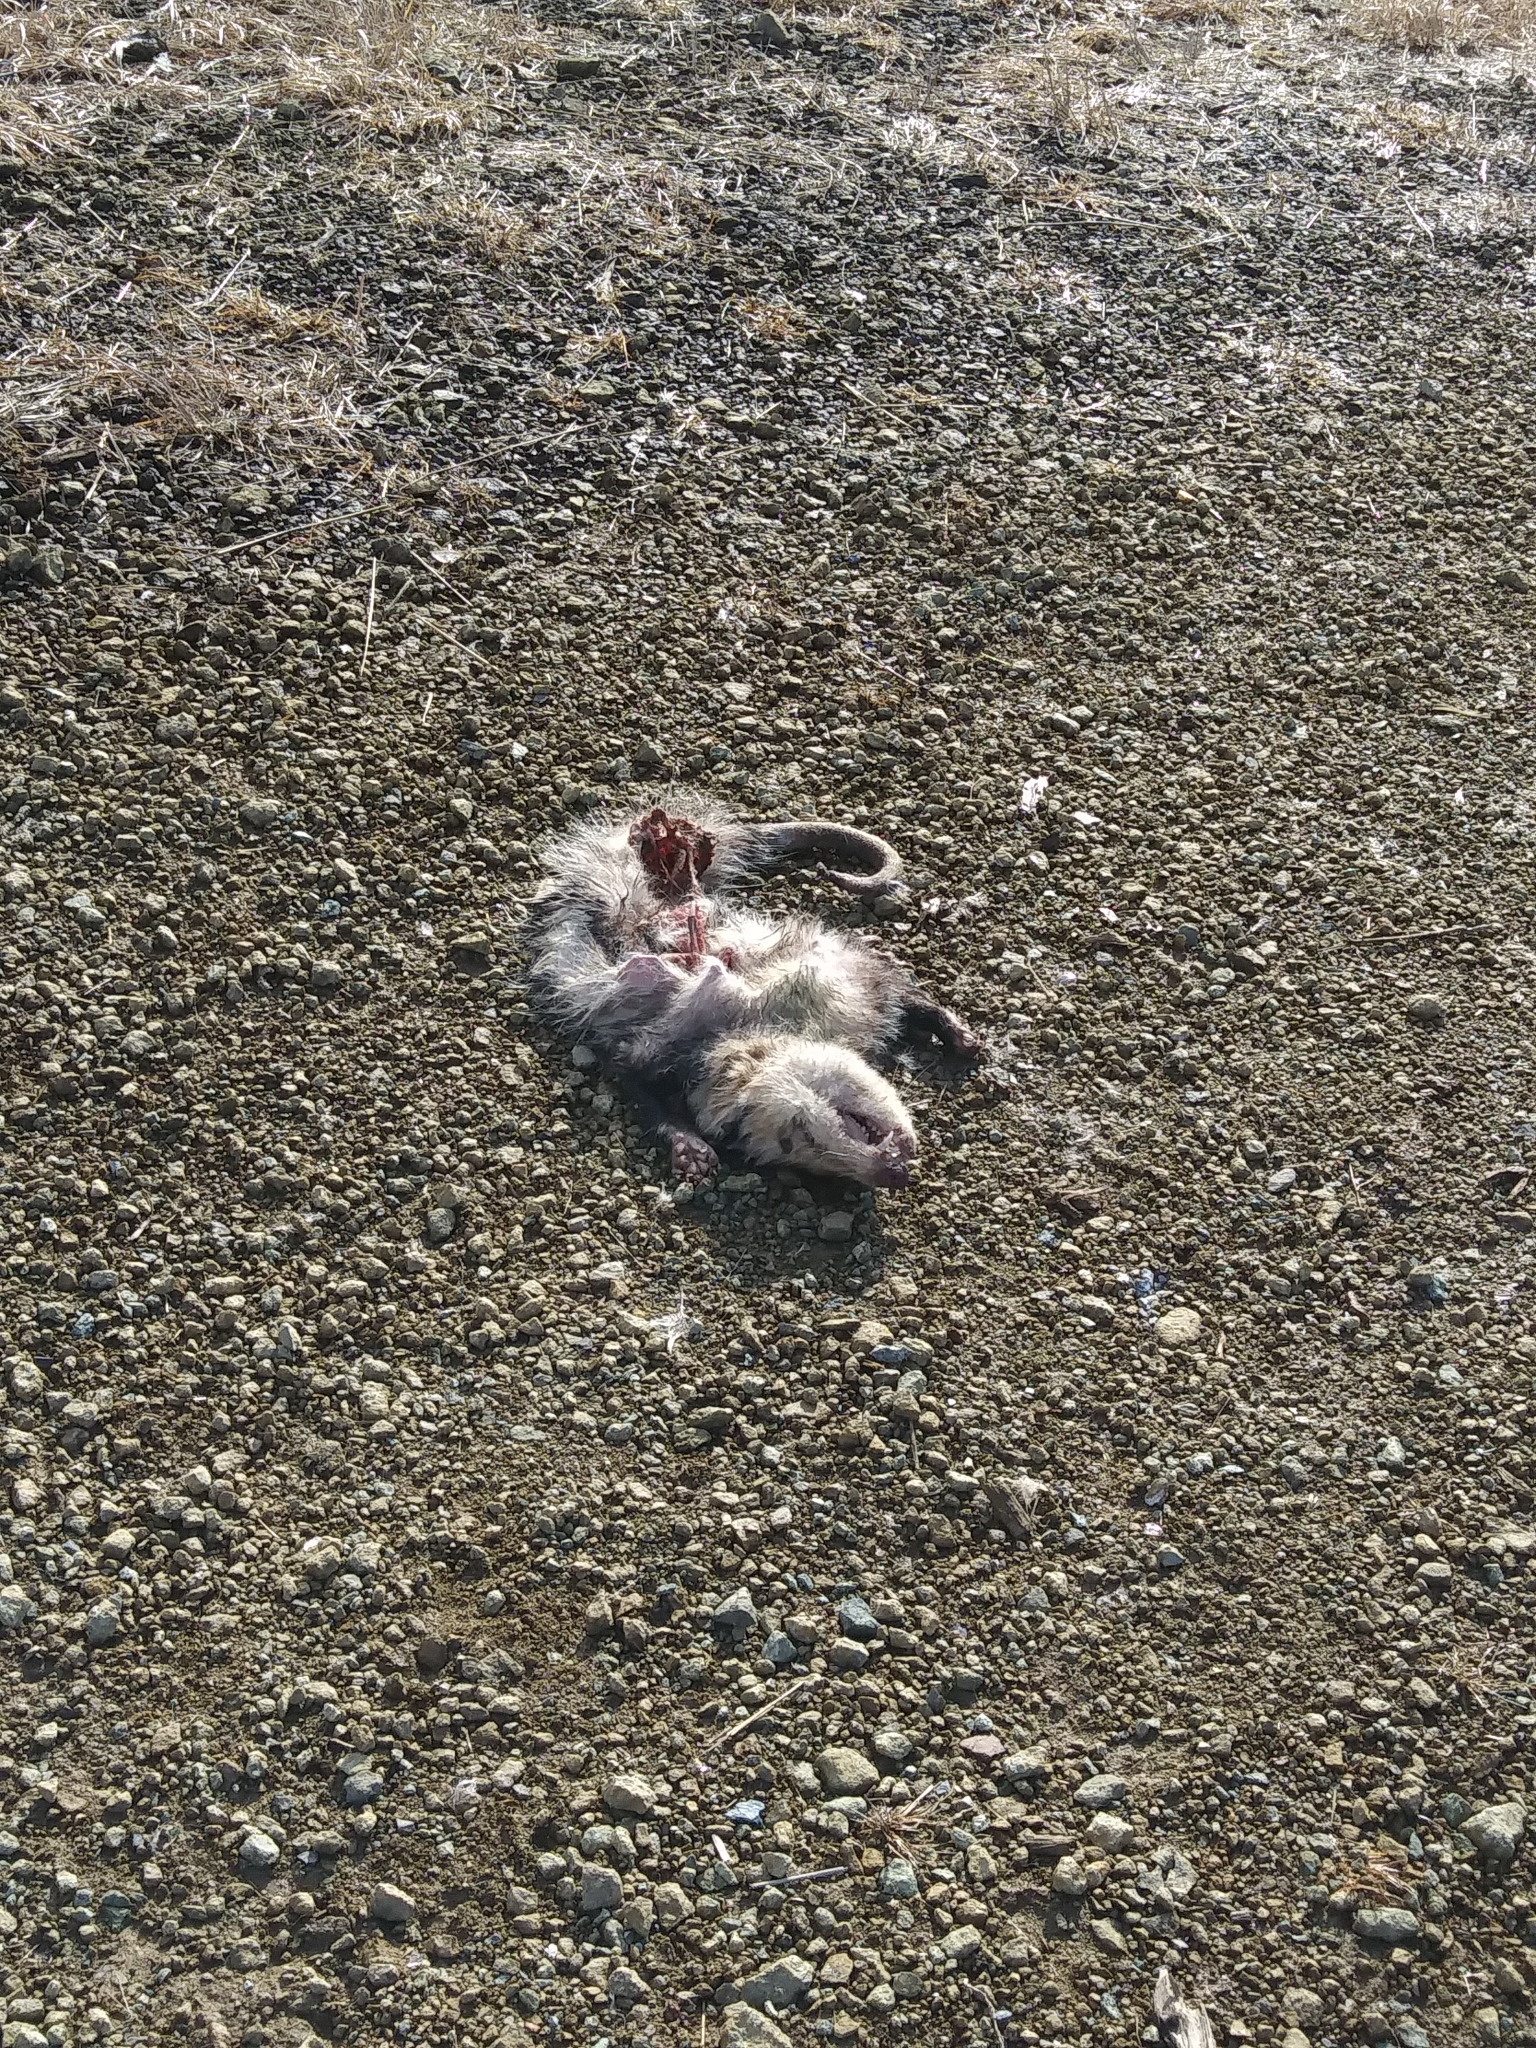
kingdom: Animalia
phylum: Chordata
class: Mammalia
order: Didelphimorphia
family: Didelphidae
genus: Didelphis
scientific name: Didelphis virginiana
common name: Virginia opossum
